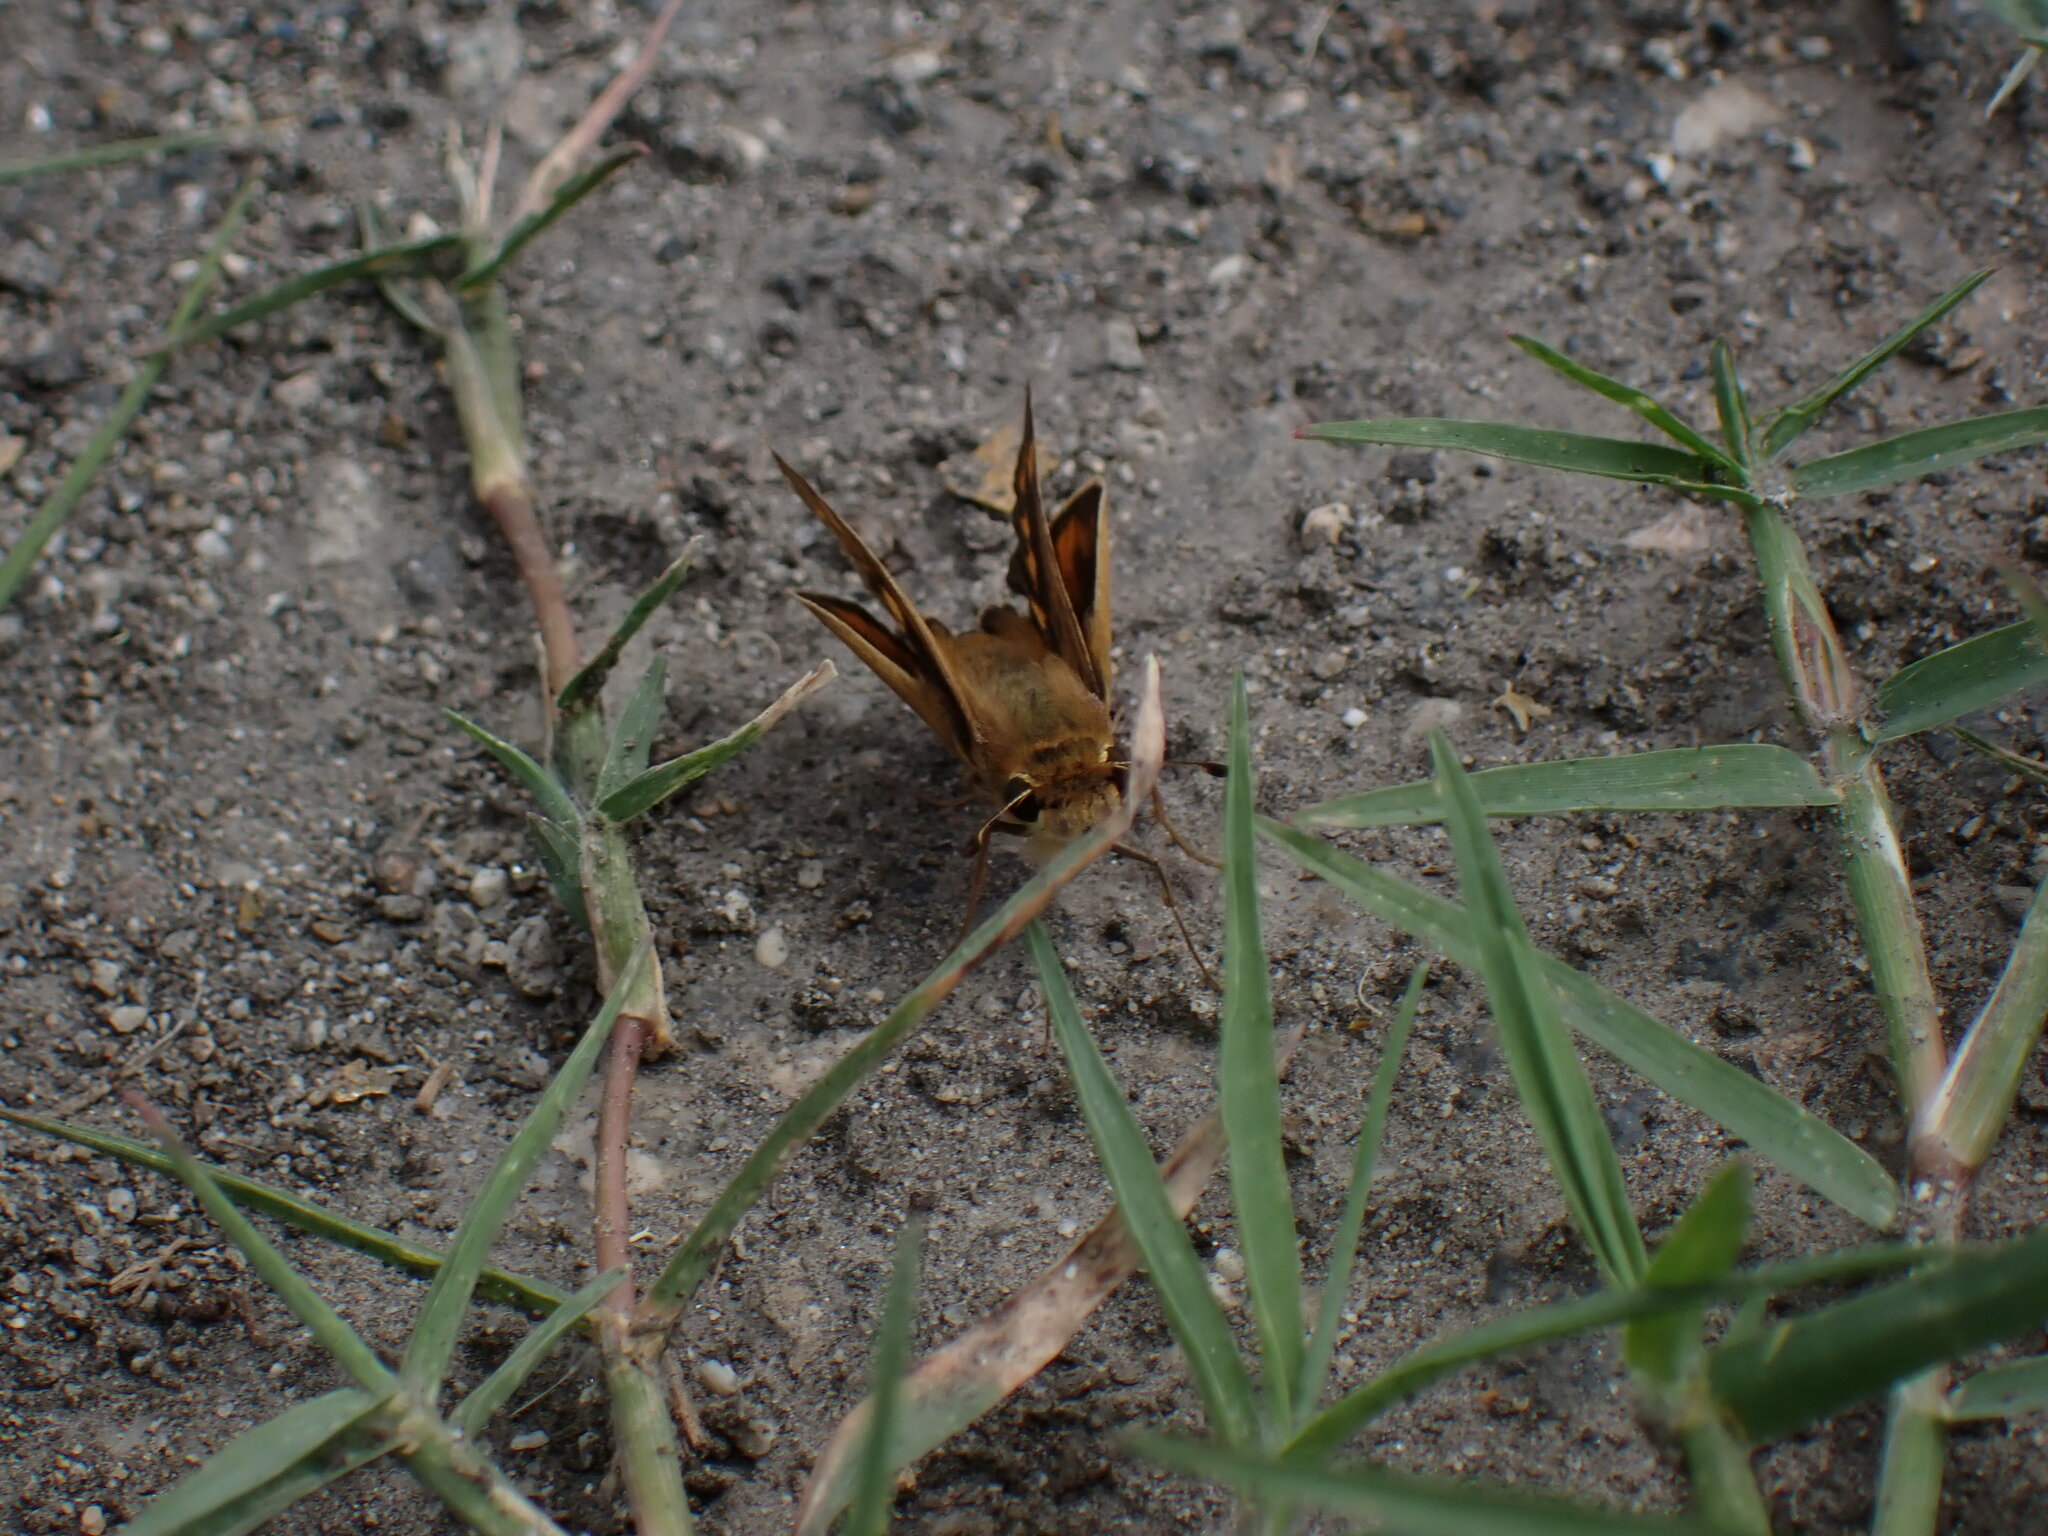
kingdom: Animalia
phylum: Arthropoda
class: Insecta
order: Lepidoptera
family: Hesperiidae
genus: Hylephila
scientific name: Hylephila phyleus
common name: Fiery skipper
